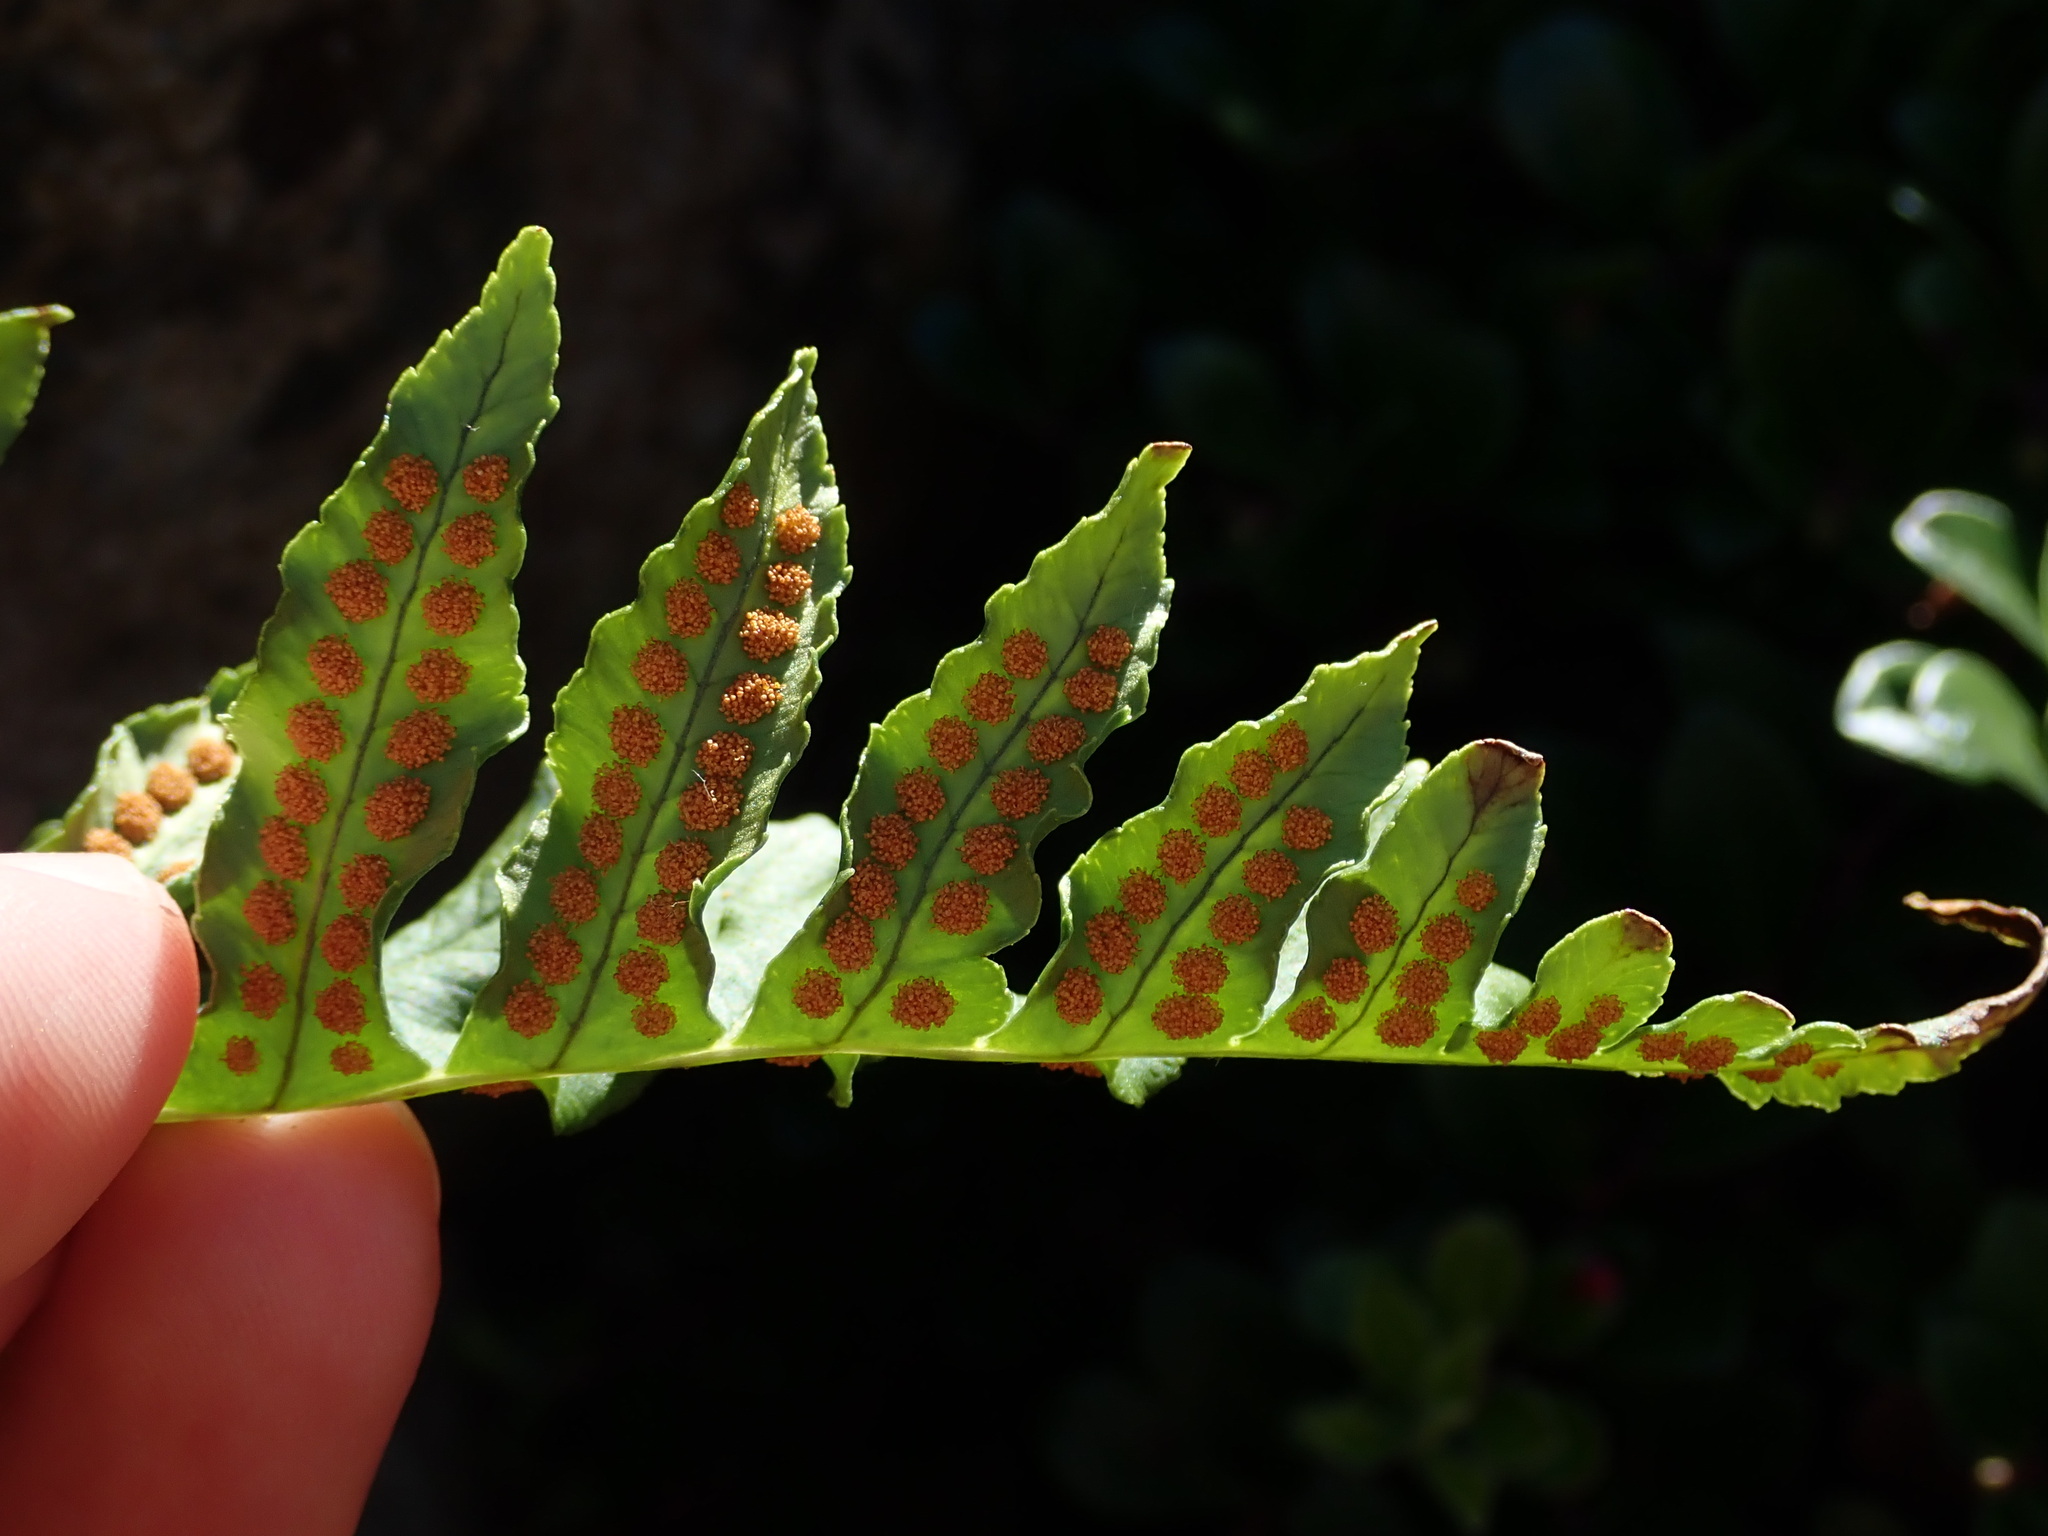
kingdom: Plantae
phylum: Tracheophyta
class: Polypodiopsida
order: Polypodiales
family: Polypodiaceae
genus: Polypodium
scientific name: Polypodium glycyrrhiza
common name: Licorice fern
